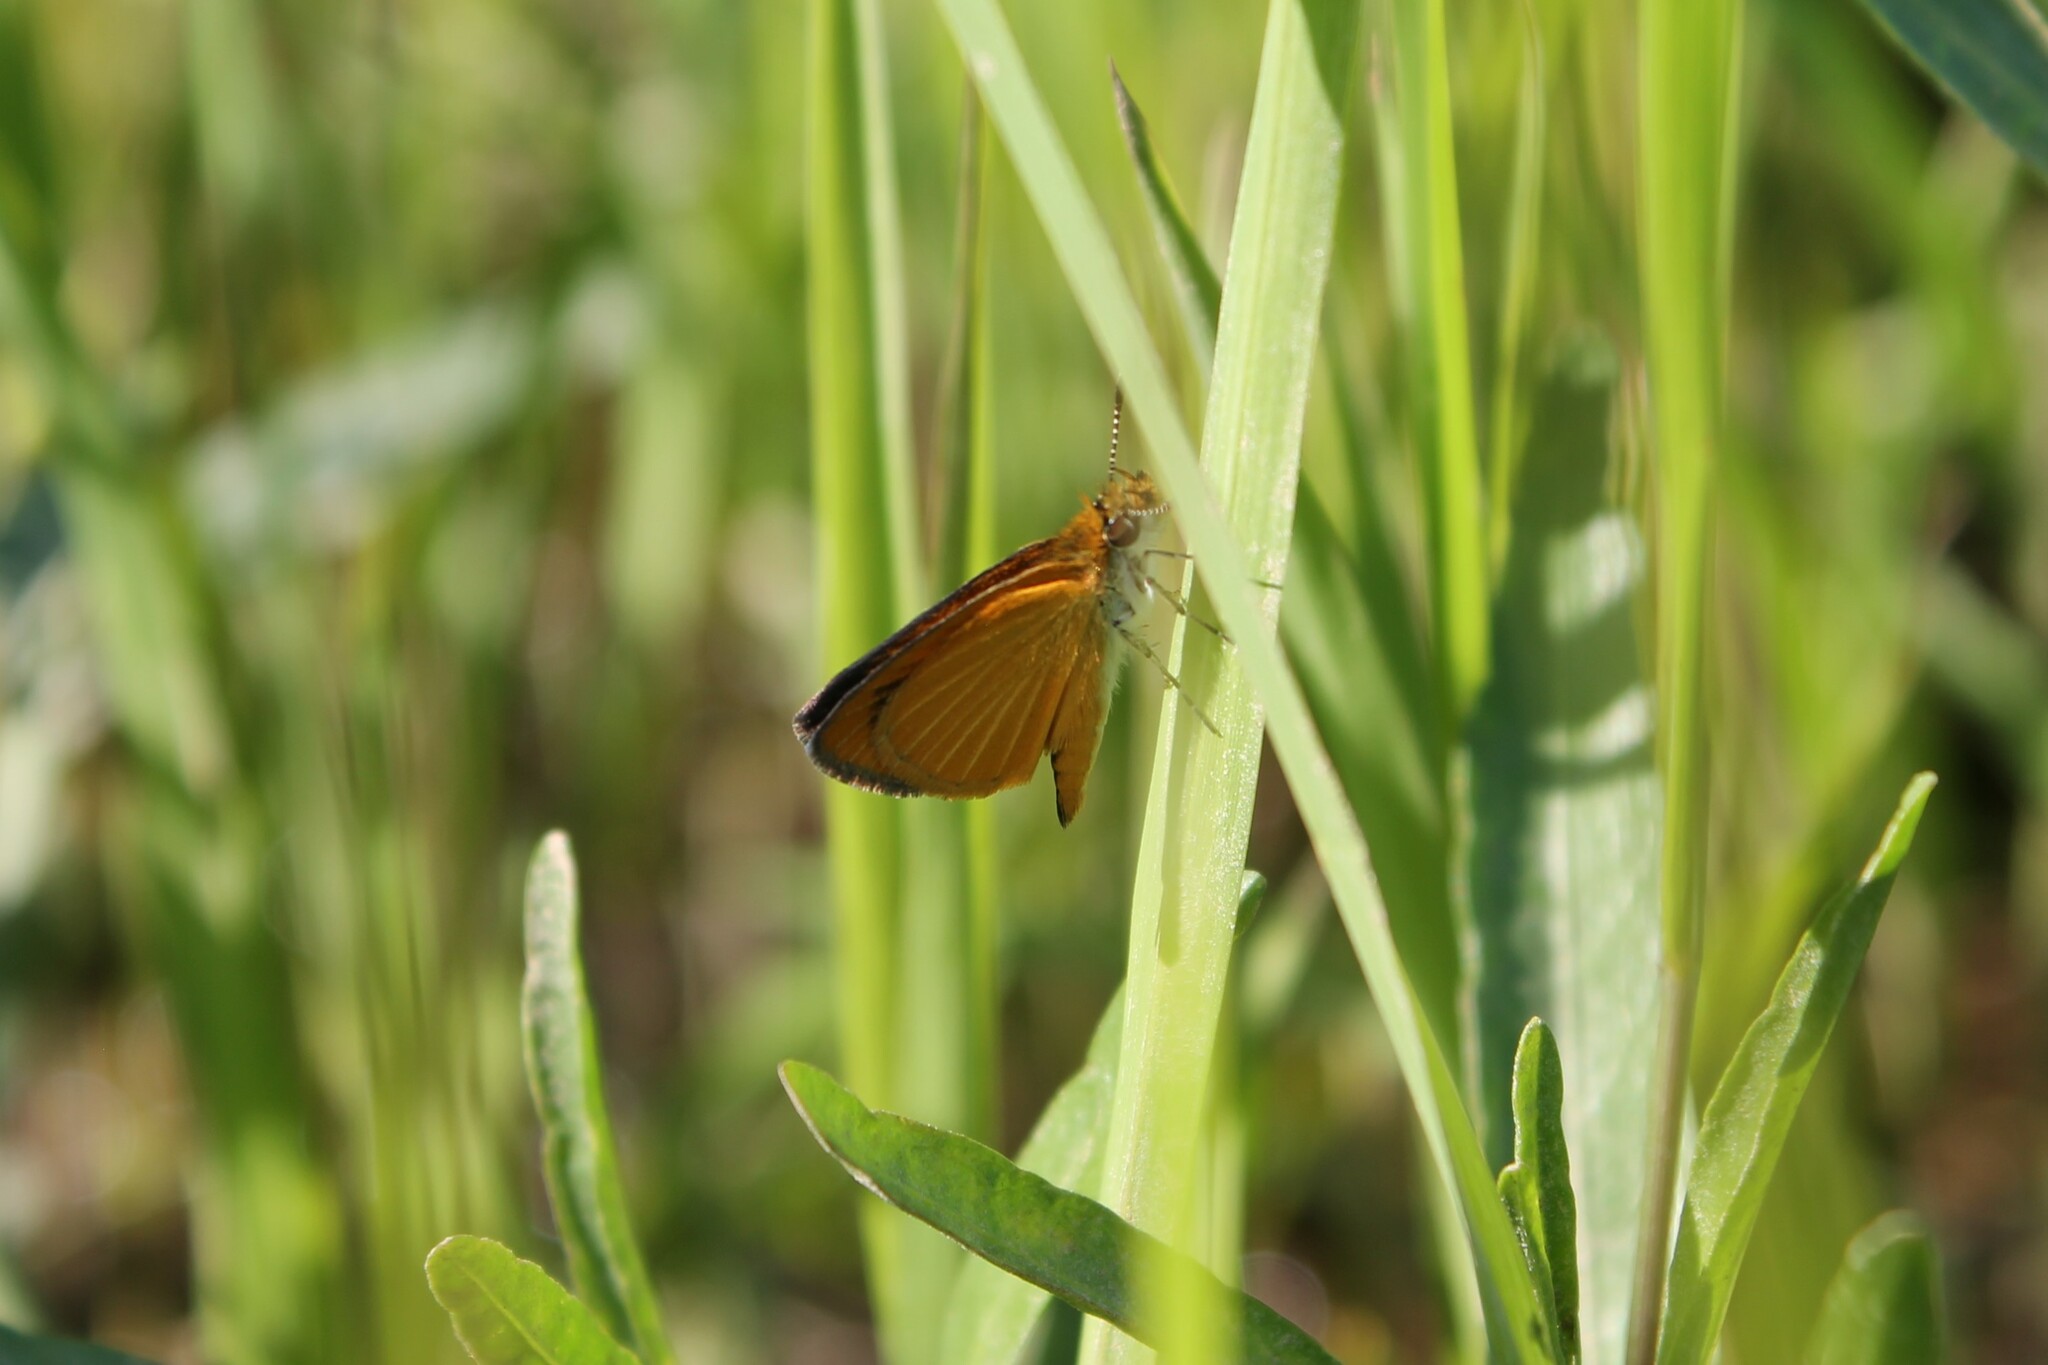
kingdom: Animalia
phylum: Arthropoda
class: Insecta
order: Lepidoptera
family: Hesperiidae
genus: Ancyloxypha
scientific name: Ancyloxypha numitor
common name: Least skipper
